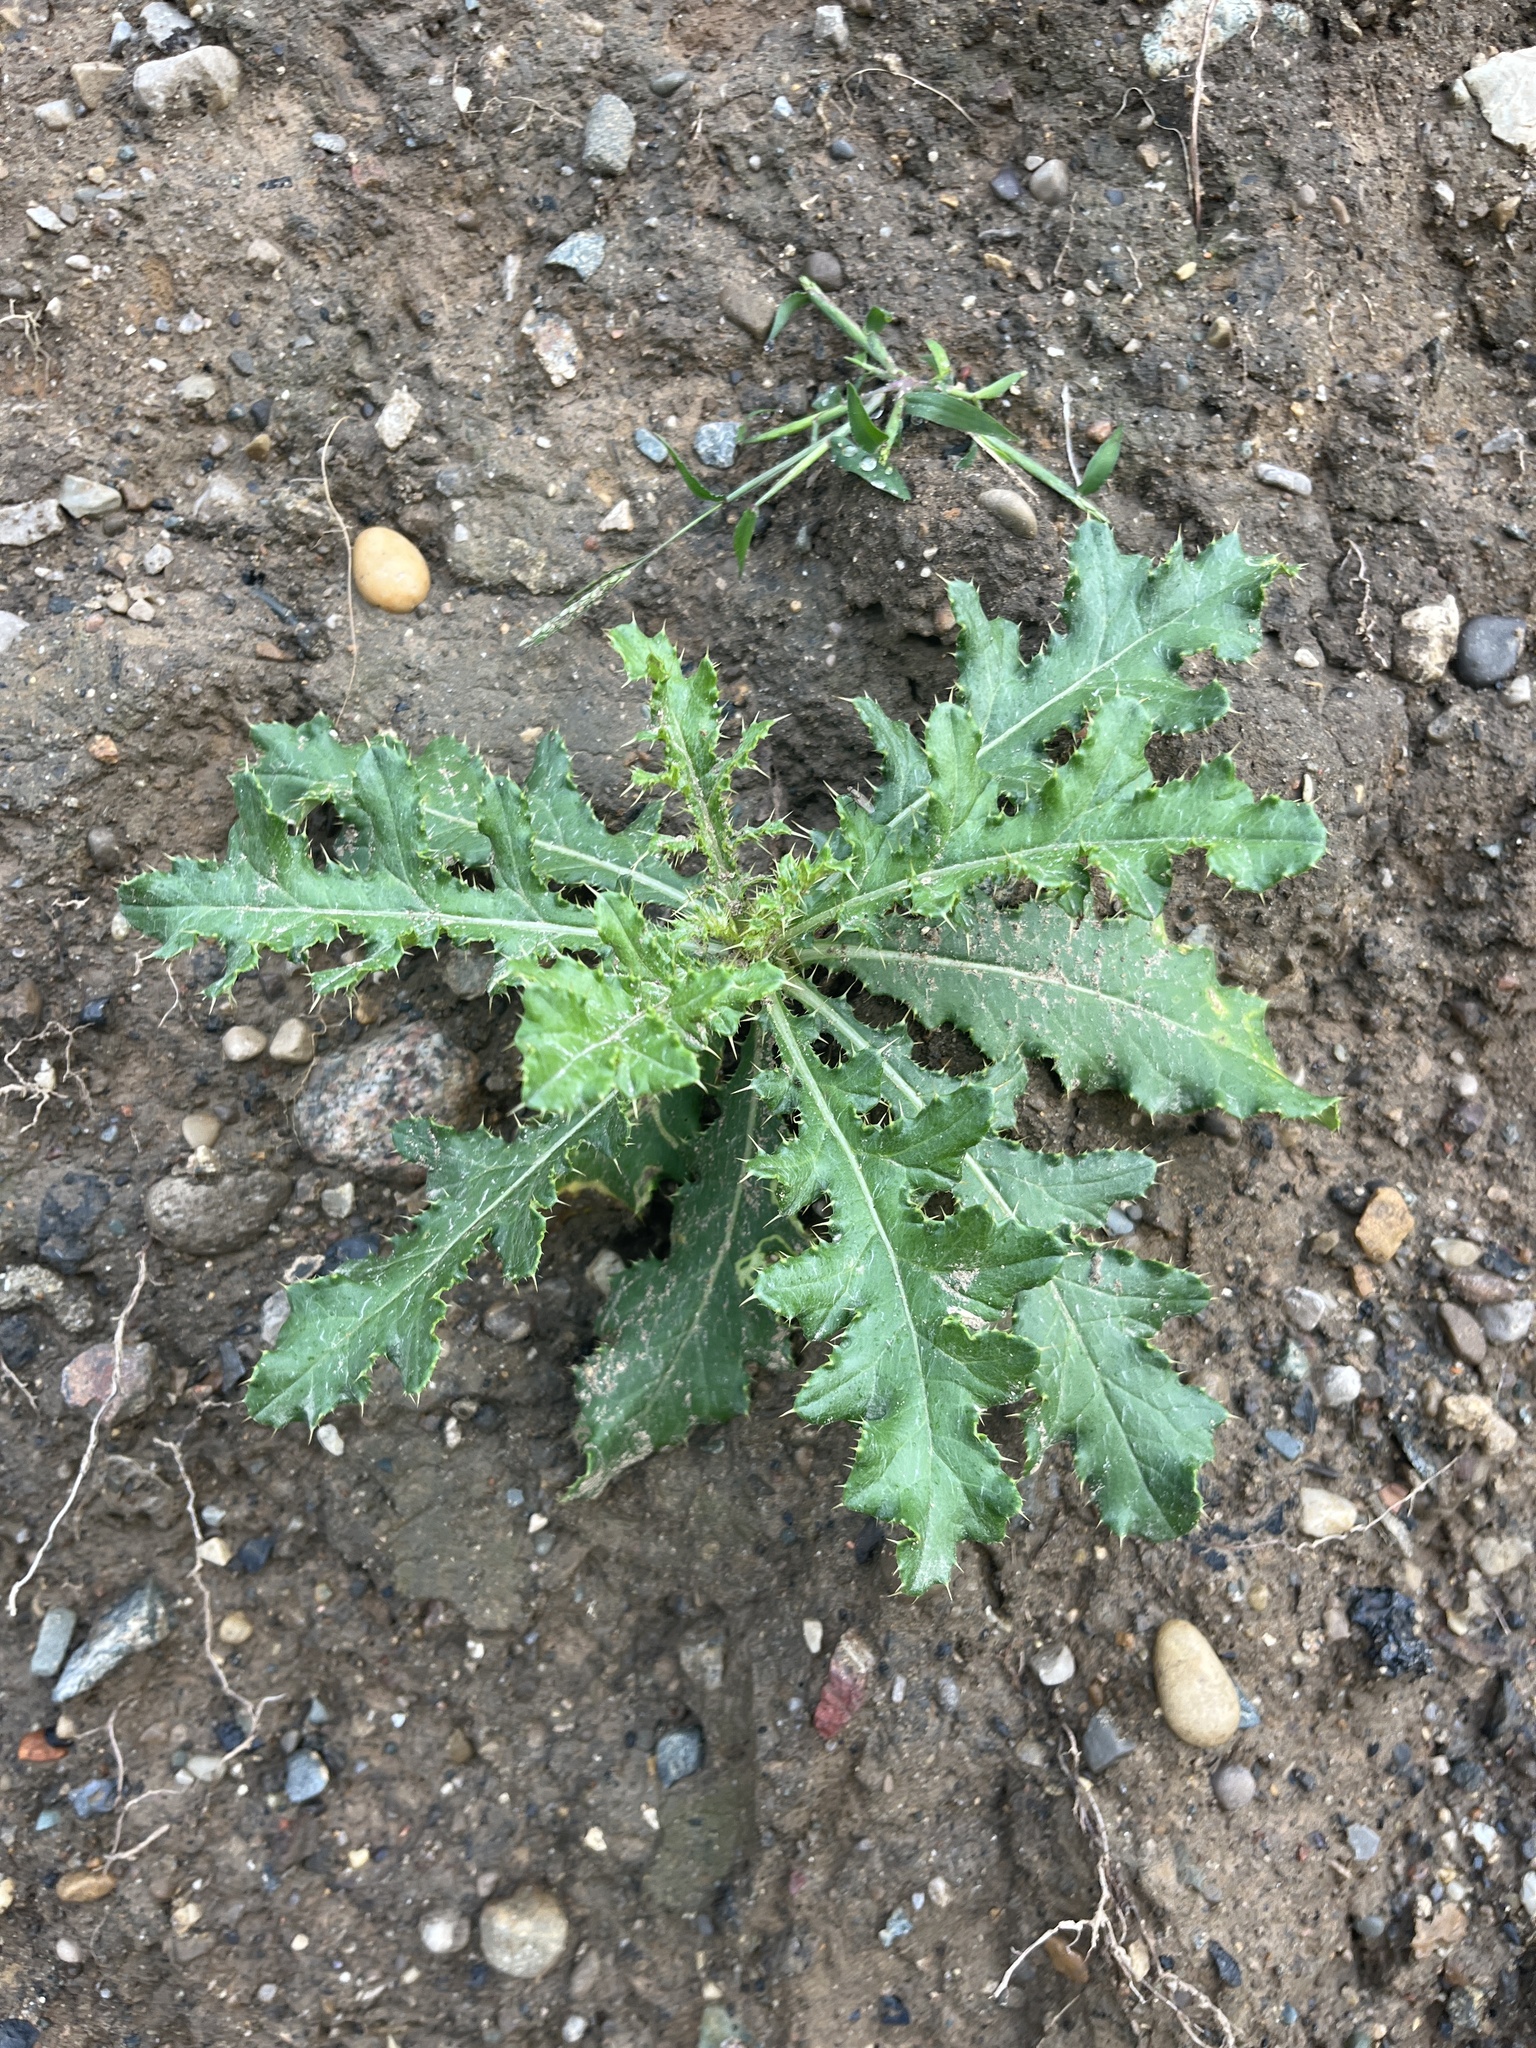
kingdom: Plantae
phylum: Tracheophyta
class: Magnoliopsida
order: Asterales
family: Asteraceae
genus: Cirsium
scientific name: Cirsium arvense
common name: Creeping thistle
